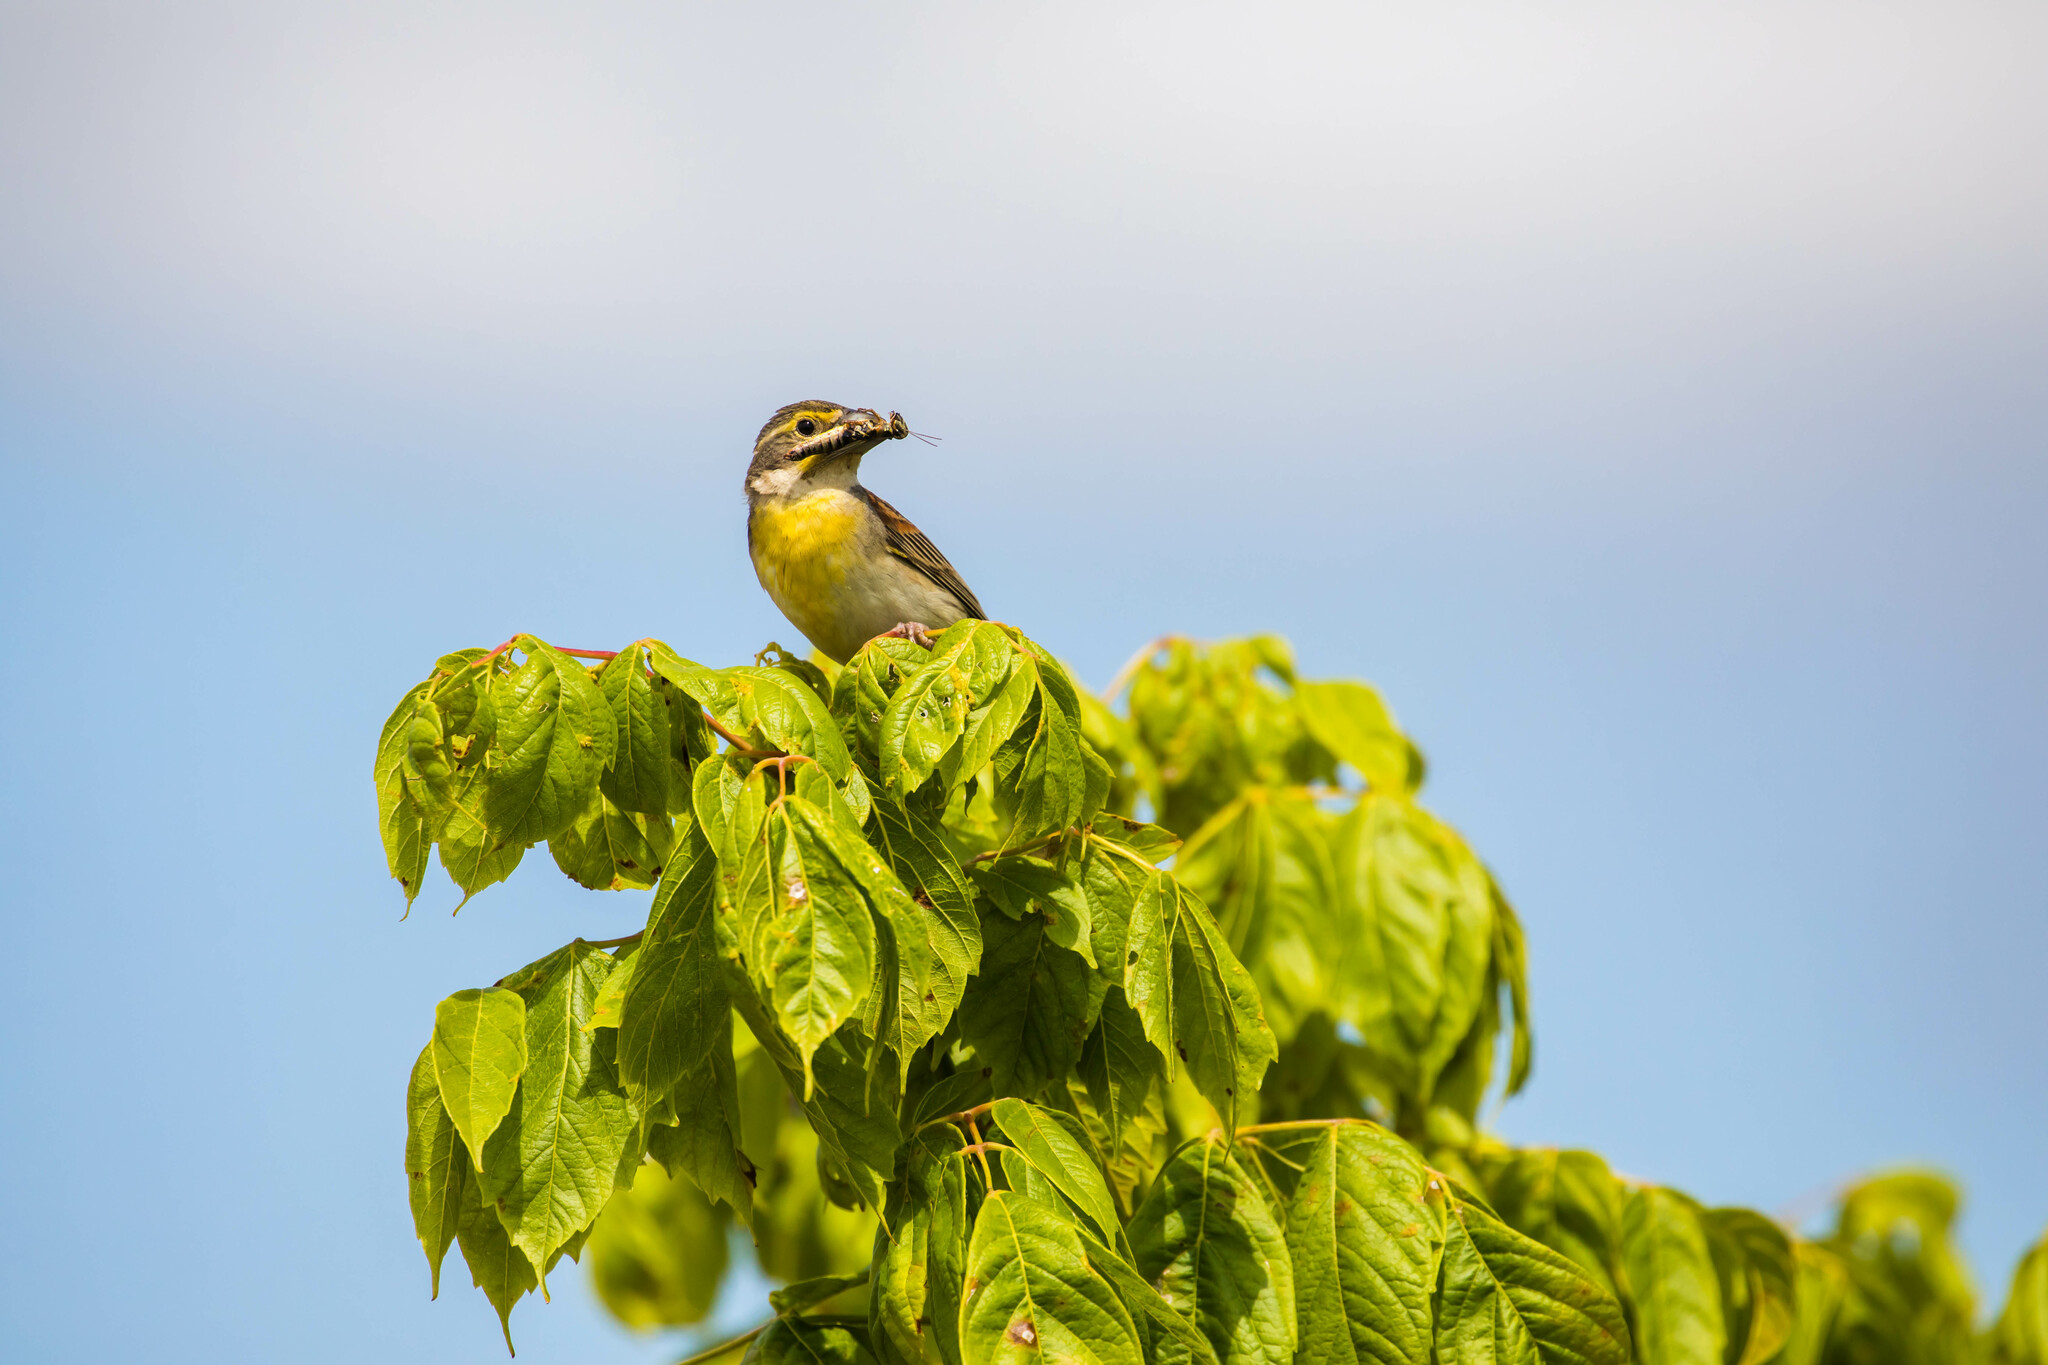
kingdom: Animalia
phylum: Chordata
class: Aves
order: Passeriformes
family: Cardinalidae
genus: Spiza
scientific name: Spiza americana
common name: Dickcissel
